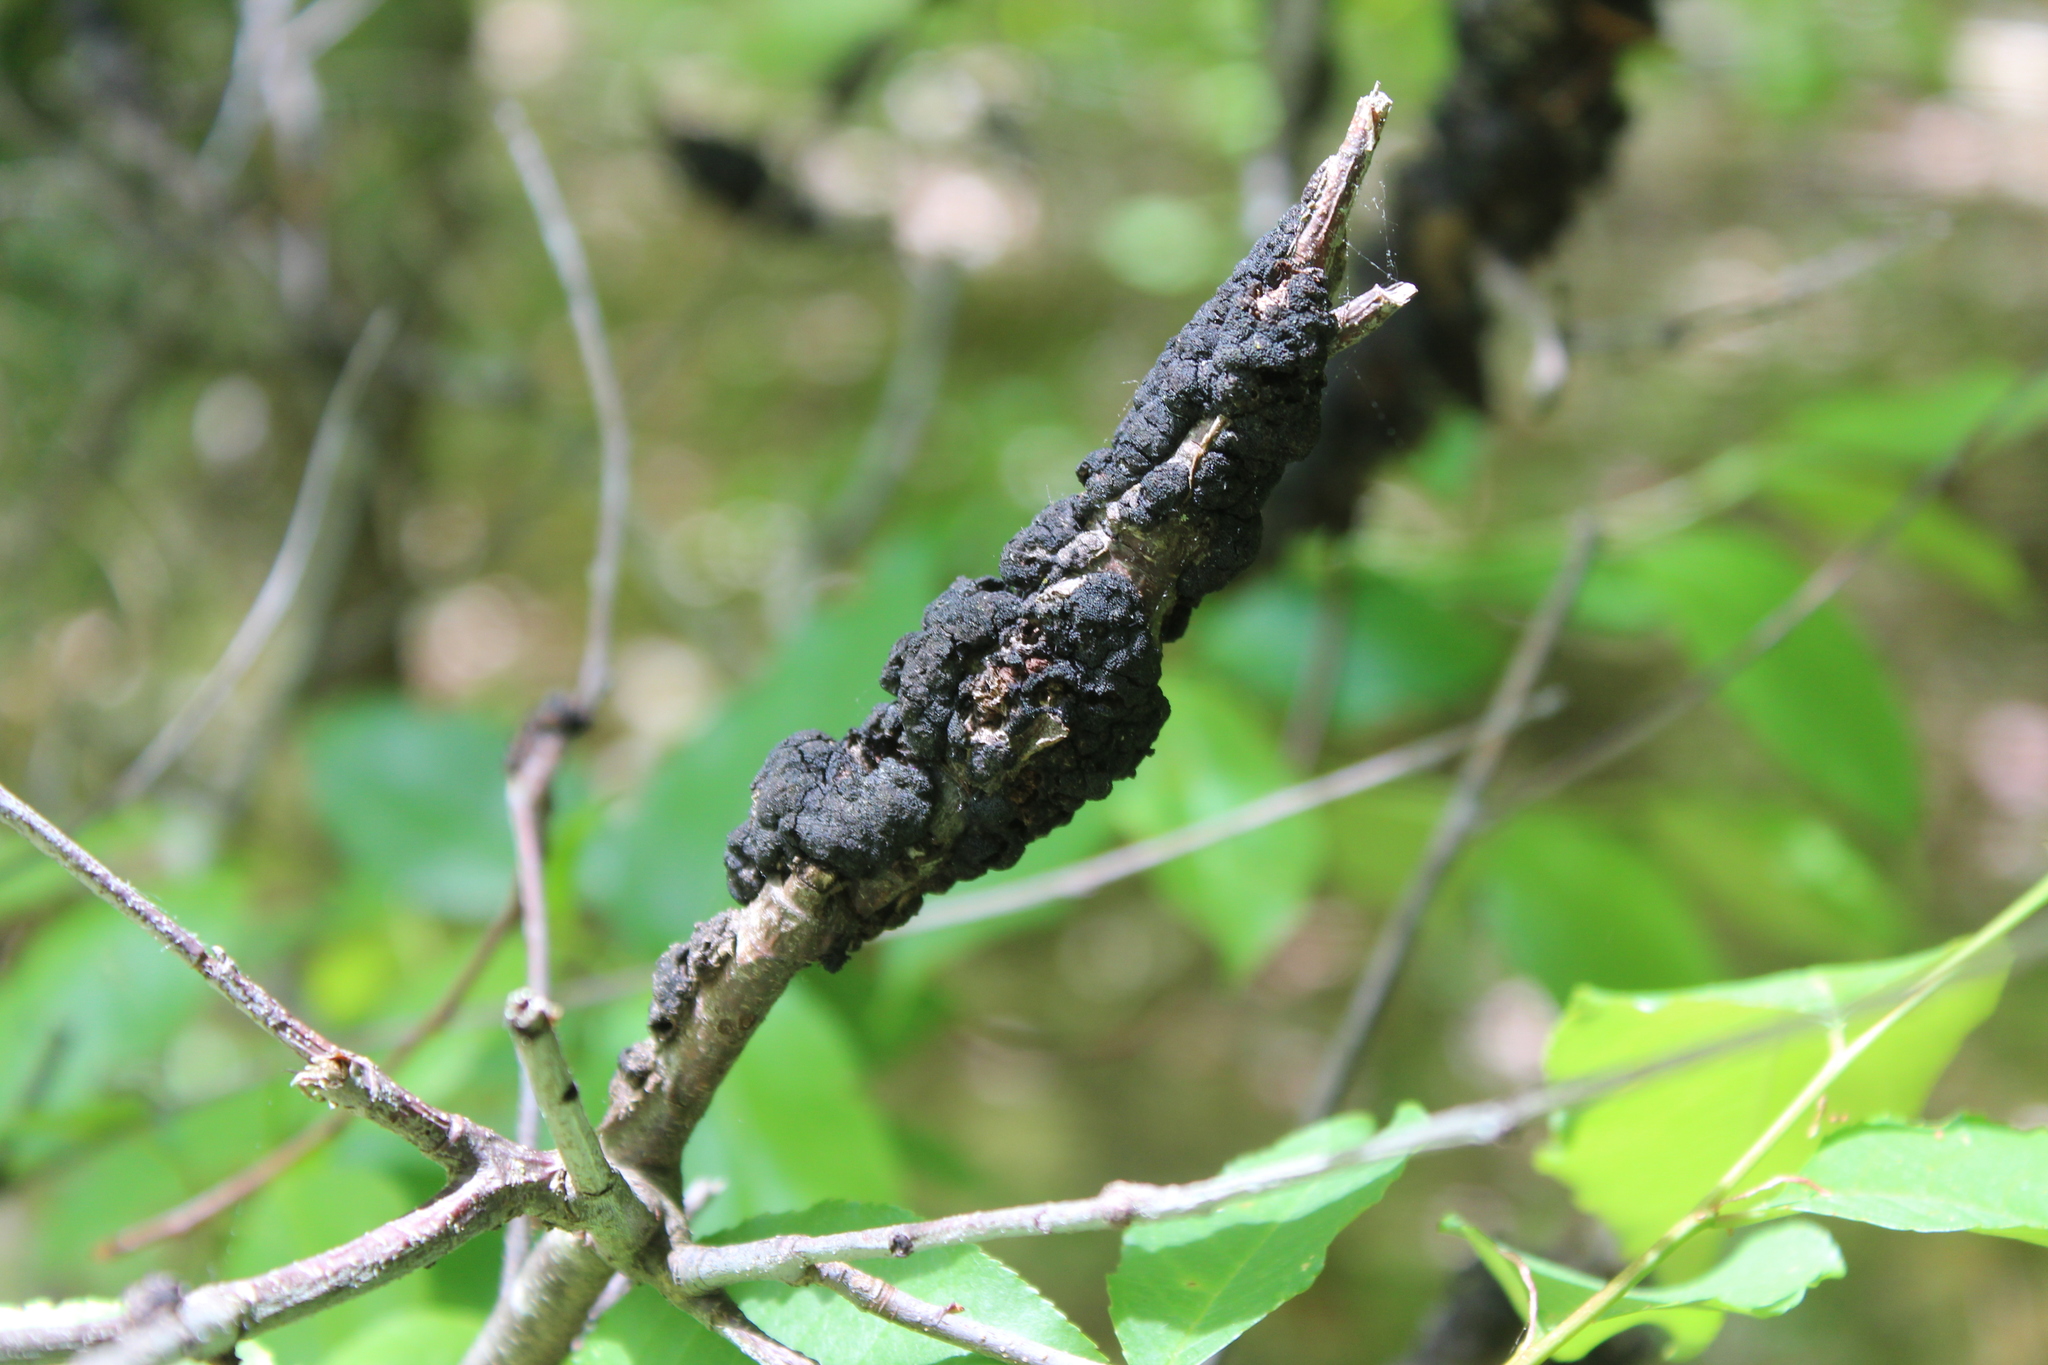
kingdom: Fungi
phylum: Ascomycota
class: Dothideomycetes
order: Venturiales
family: Venturiaceae
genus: Apiosporina
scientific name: Apiosporina morbosa
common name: Black knot
